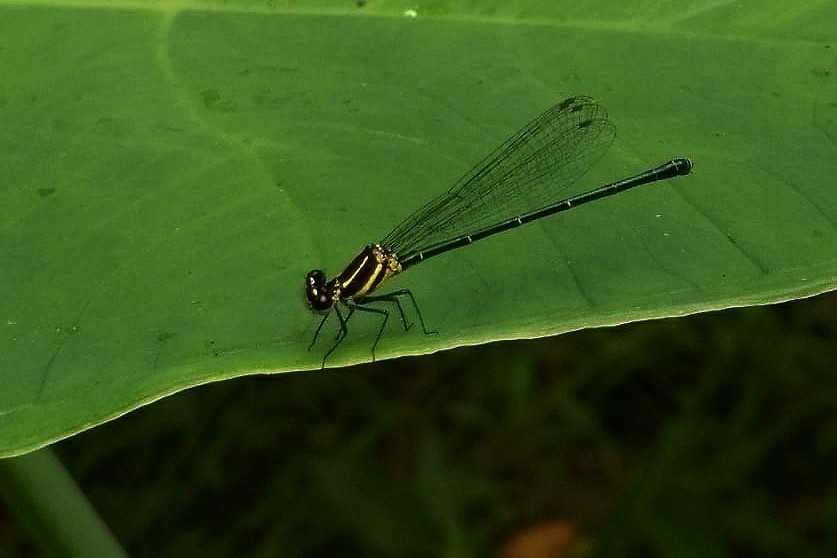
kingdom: Animalia
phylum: Arthropoda
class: Insecta
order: Odonata
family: Platycnemididae
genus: Onychargia
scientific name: Onychargia atrocyana
